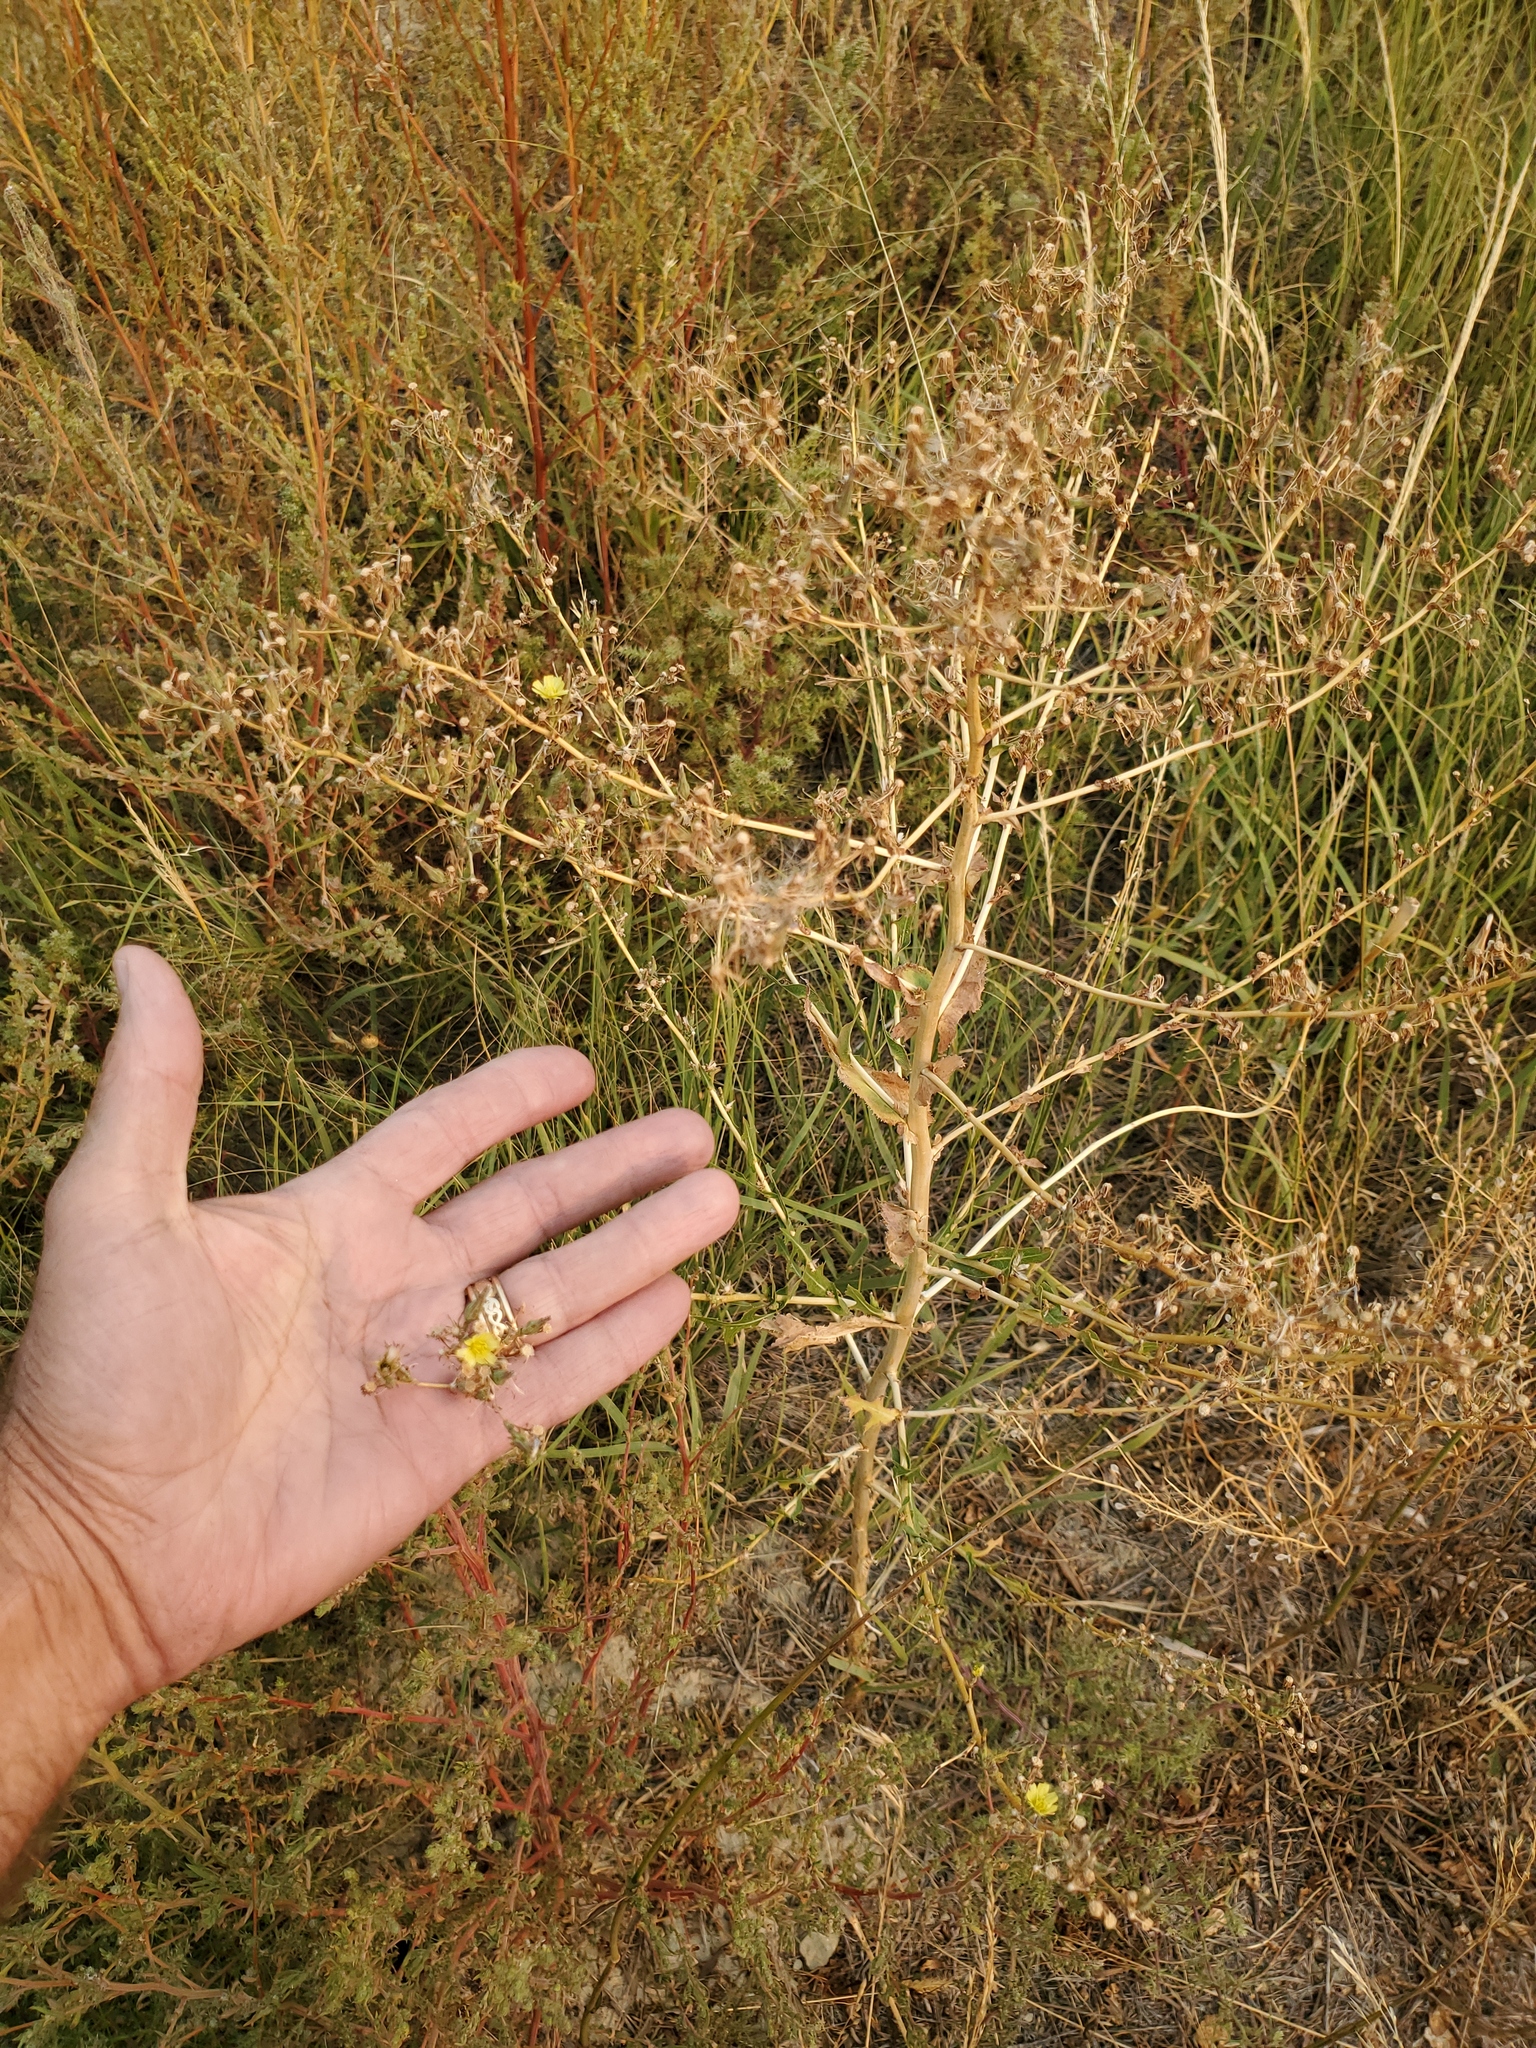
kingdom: Plantae
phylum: Tracheophyta
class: Magnoliopsida
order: Asterales
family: Asteraceae
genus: Lactuca
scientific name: Lactuca serriola
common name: Prickly lettuce
